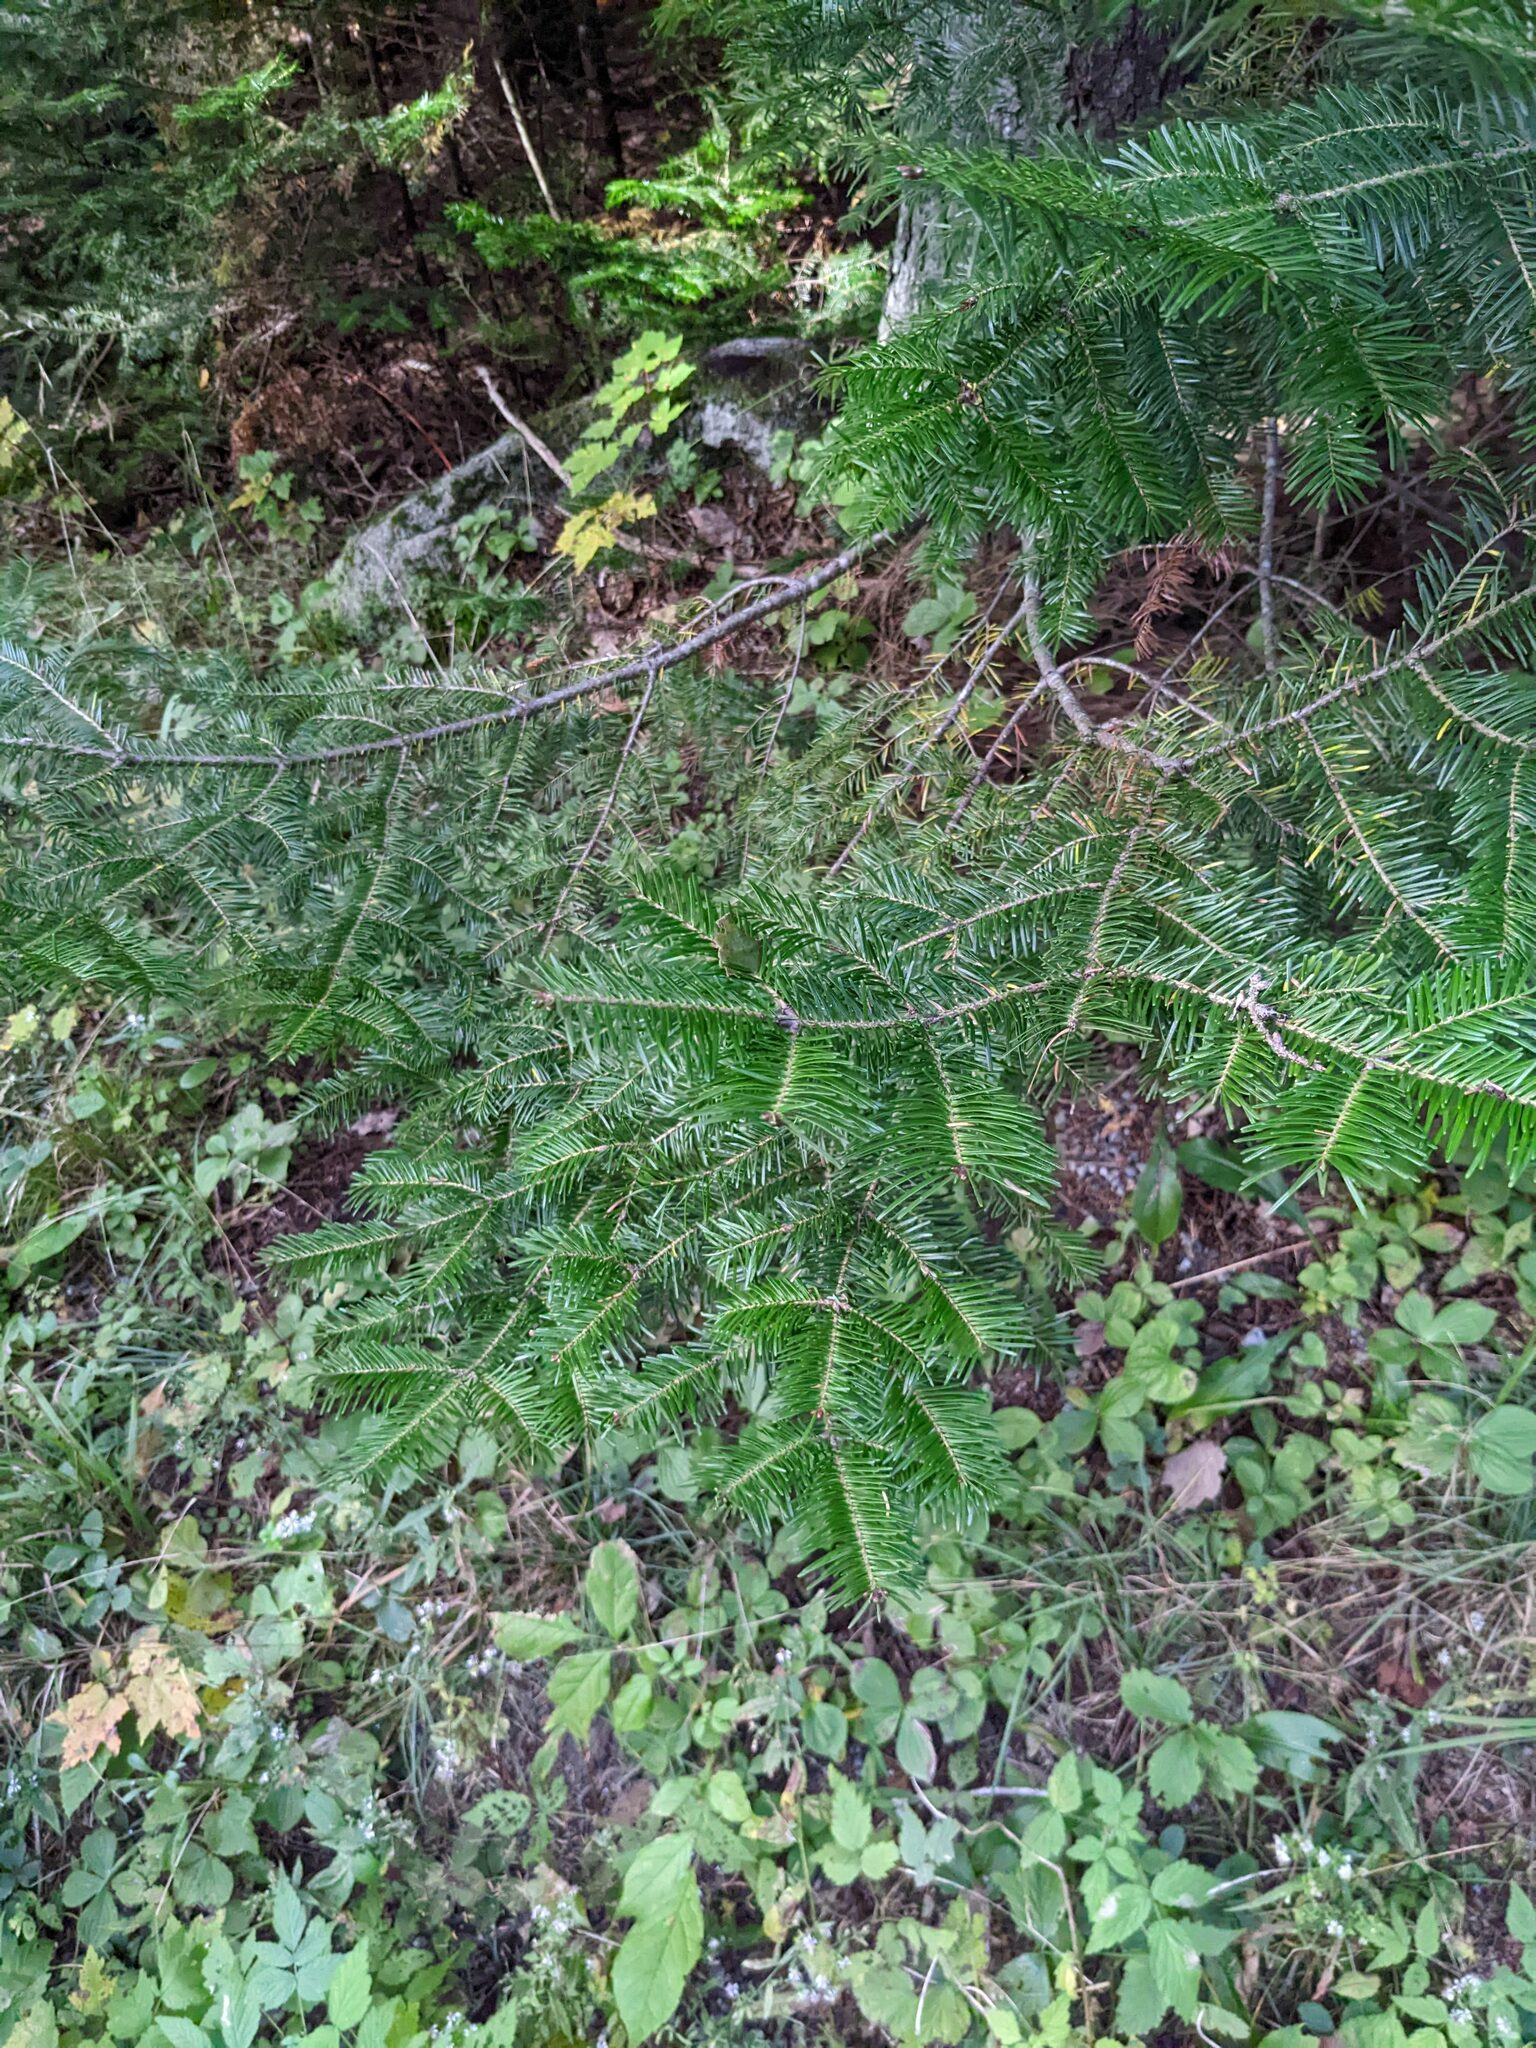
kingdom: Plantae
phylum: Tracheophyta
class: Pinopsida
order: Pinales
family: Pinaceae
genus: Abies
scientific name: Abies balsamea
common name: Balsam fir
